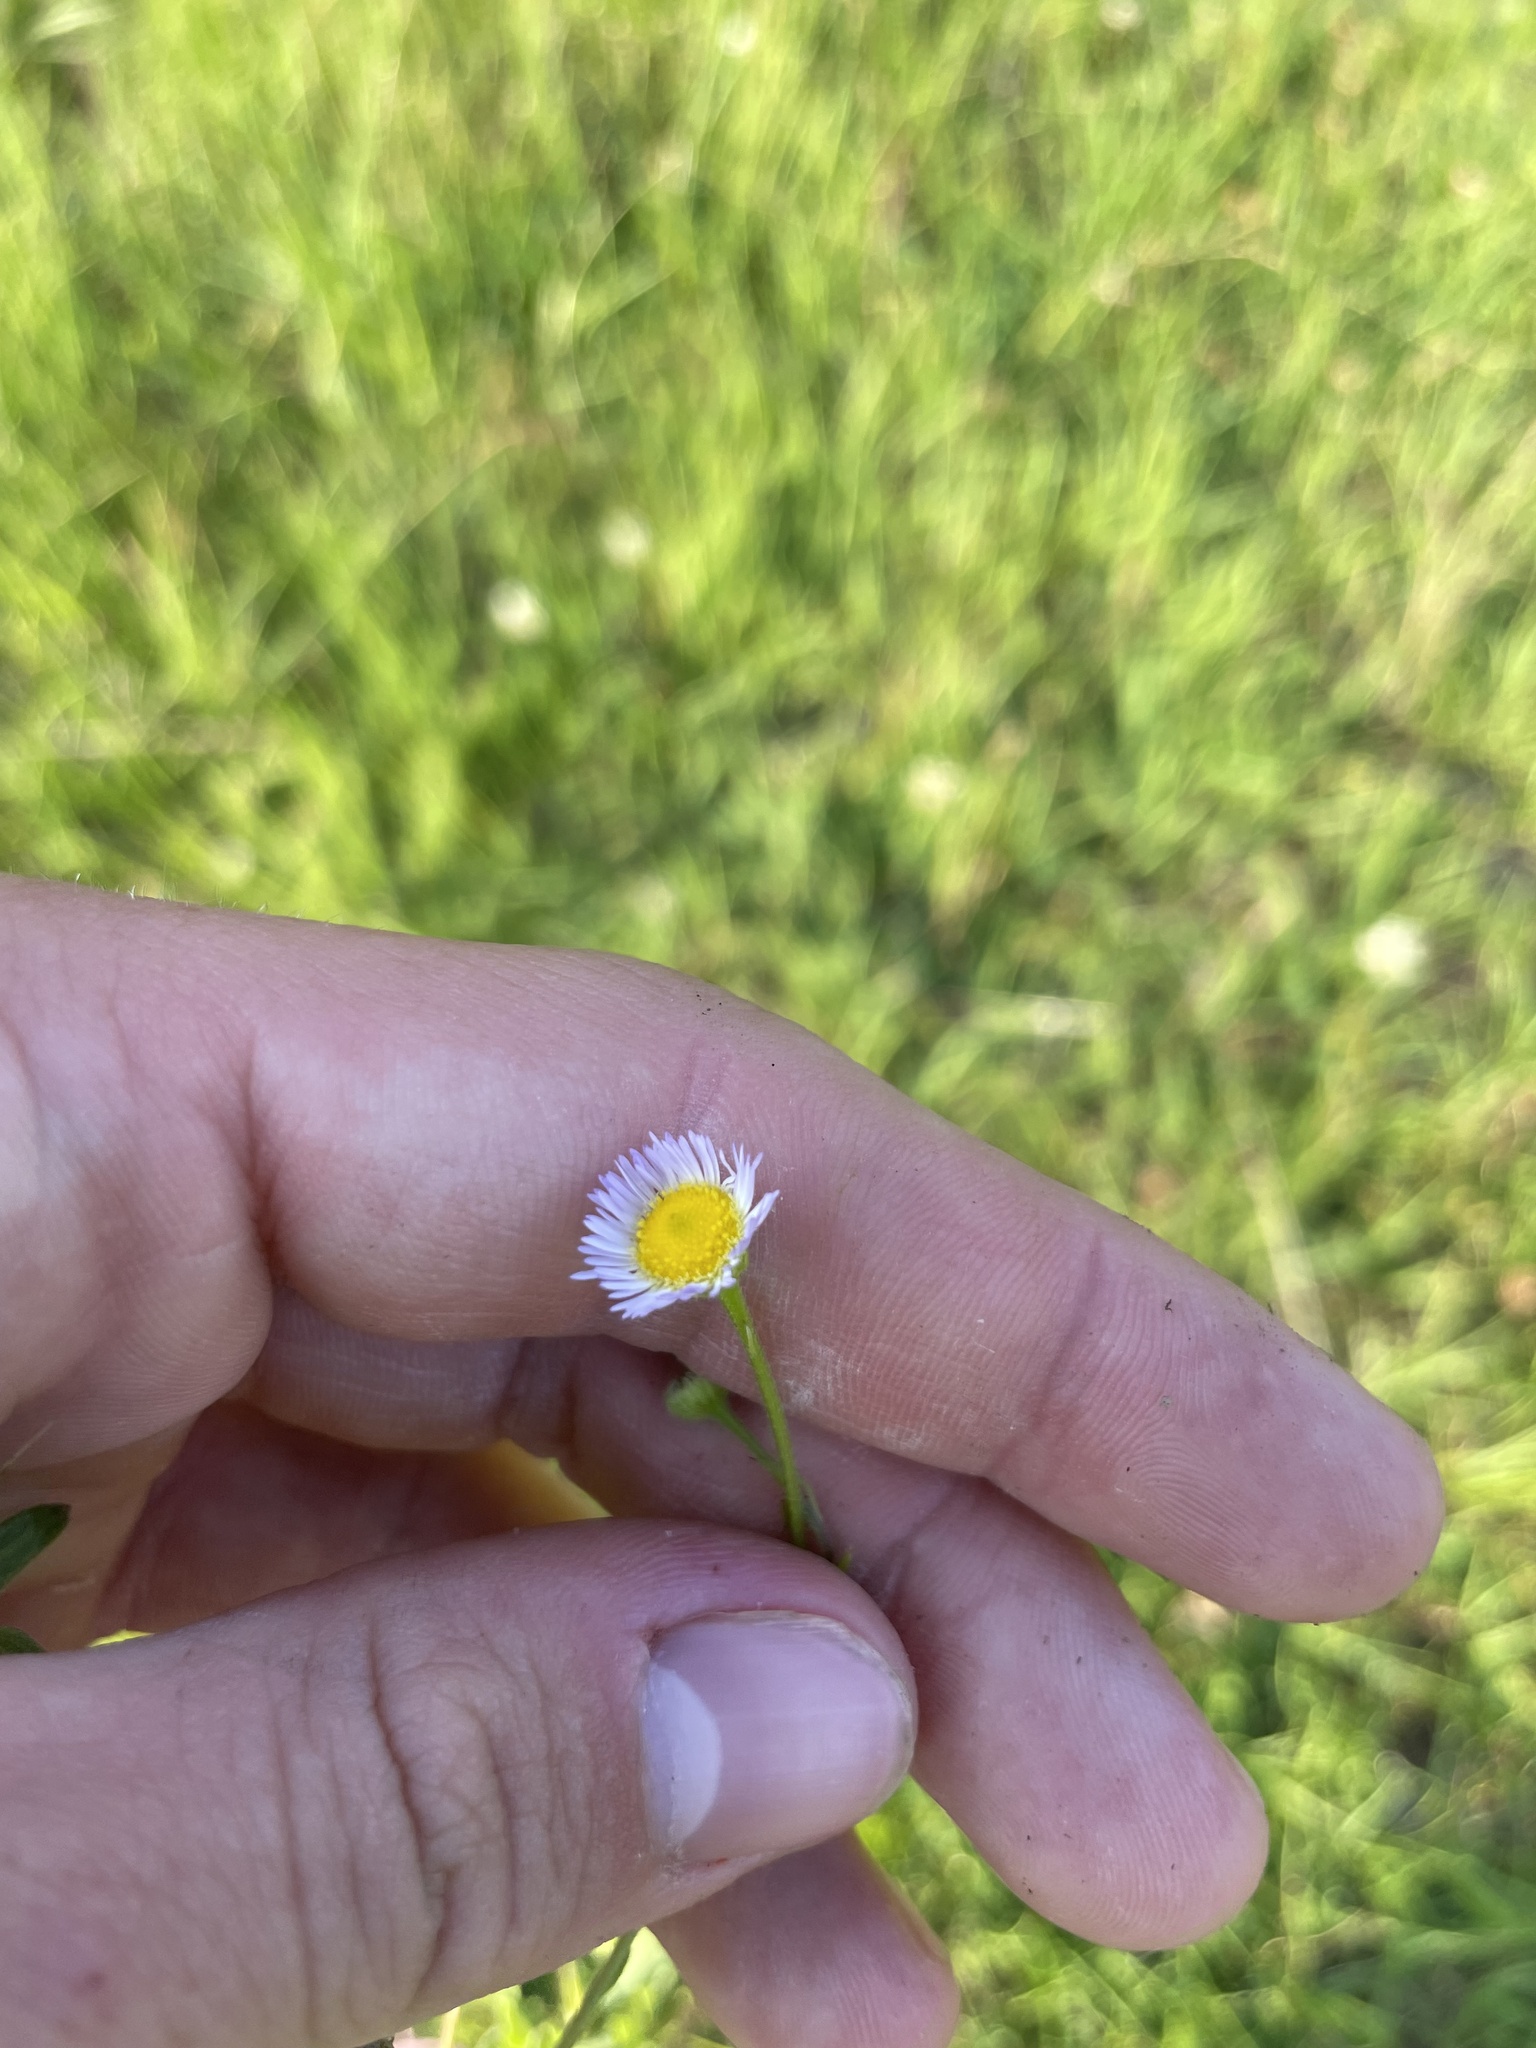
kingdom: Plantae
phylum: Tracheophyta
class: Magnoliopsida
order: Asterales
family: Asteraceae
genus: Erigeron
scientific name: Erigeron tenuis
